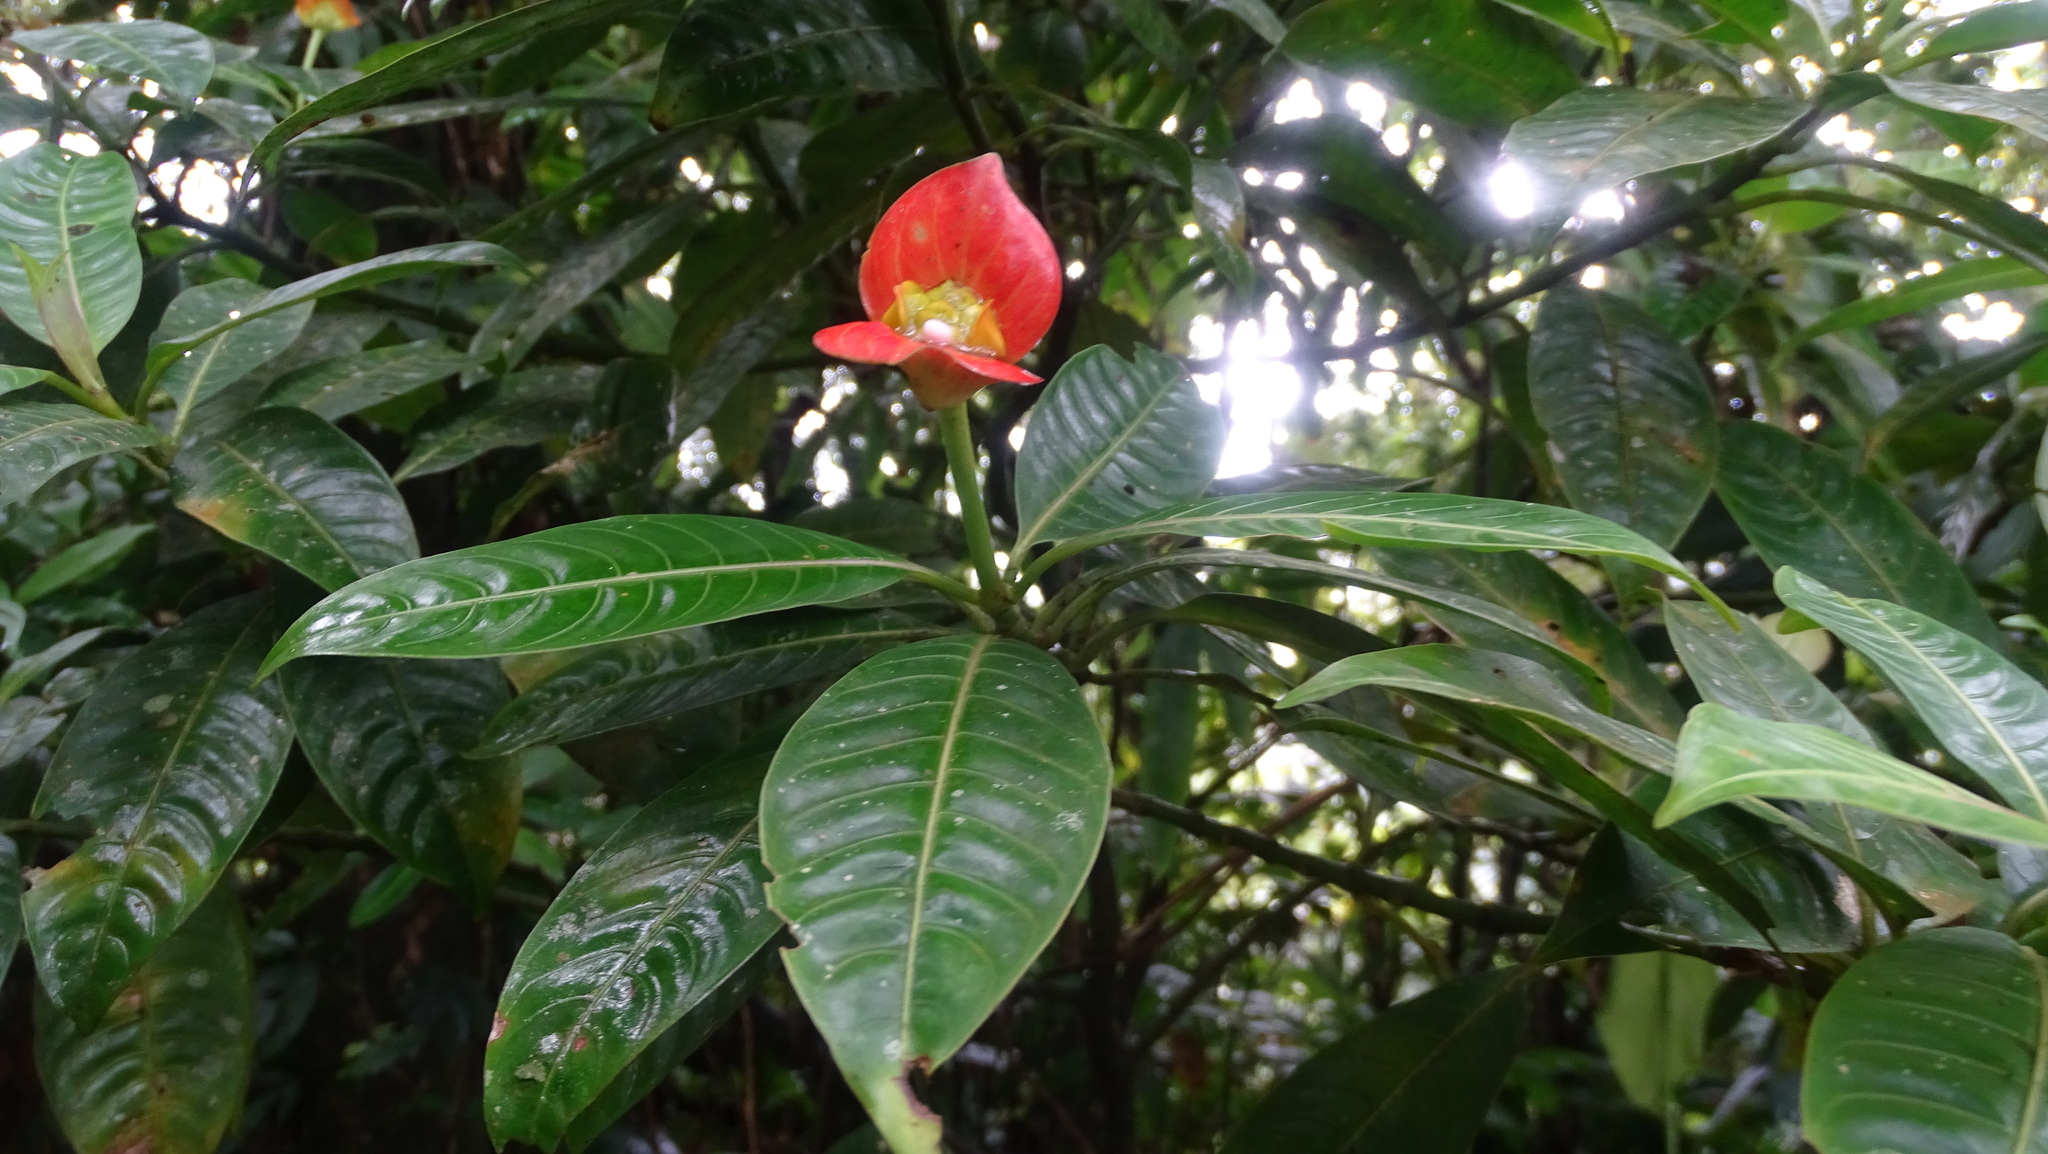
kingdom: Plantae
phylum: Tracheophyta
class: Magnoliopsida
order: Gentianales
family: Rubiaceae
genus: Palicourea
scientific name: Palicourea elata
